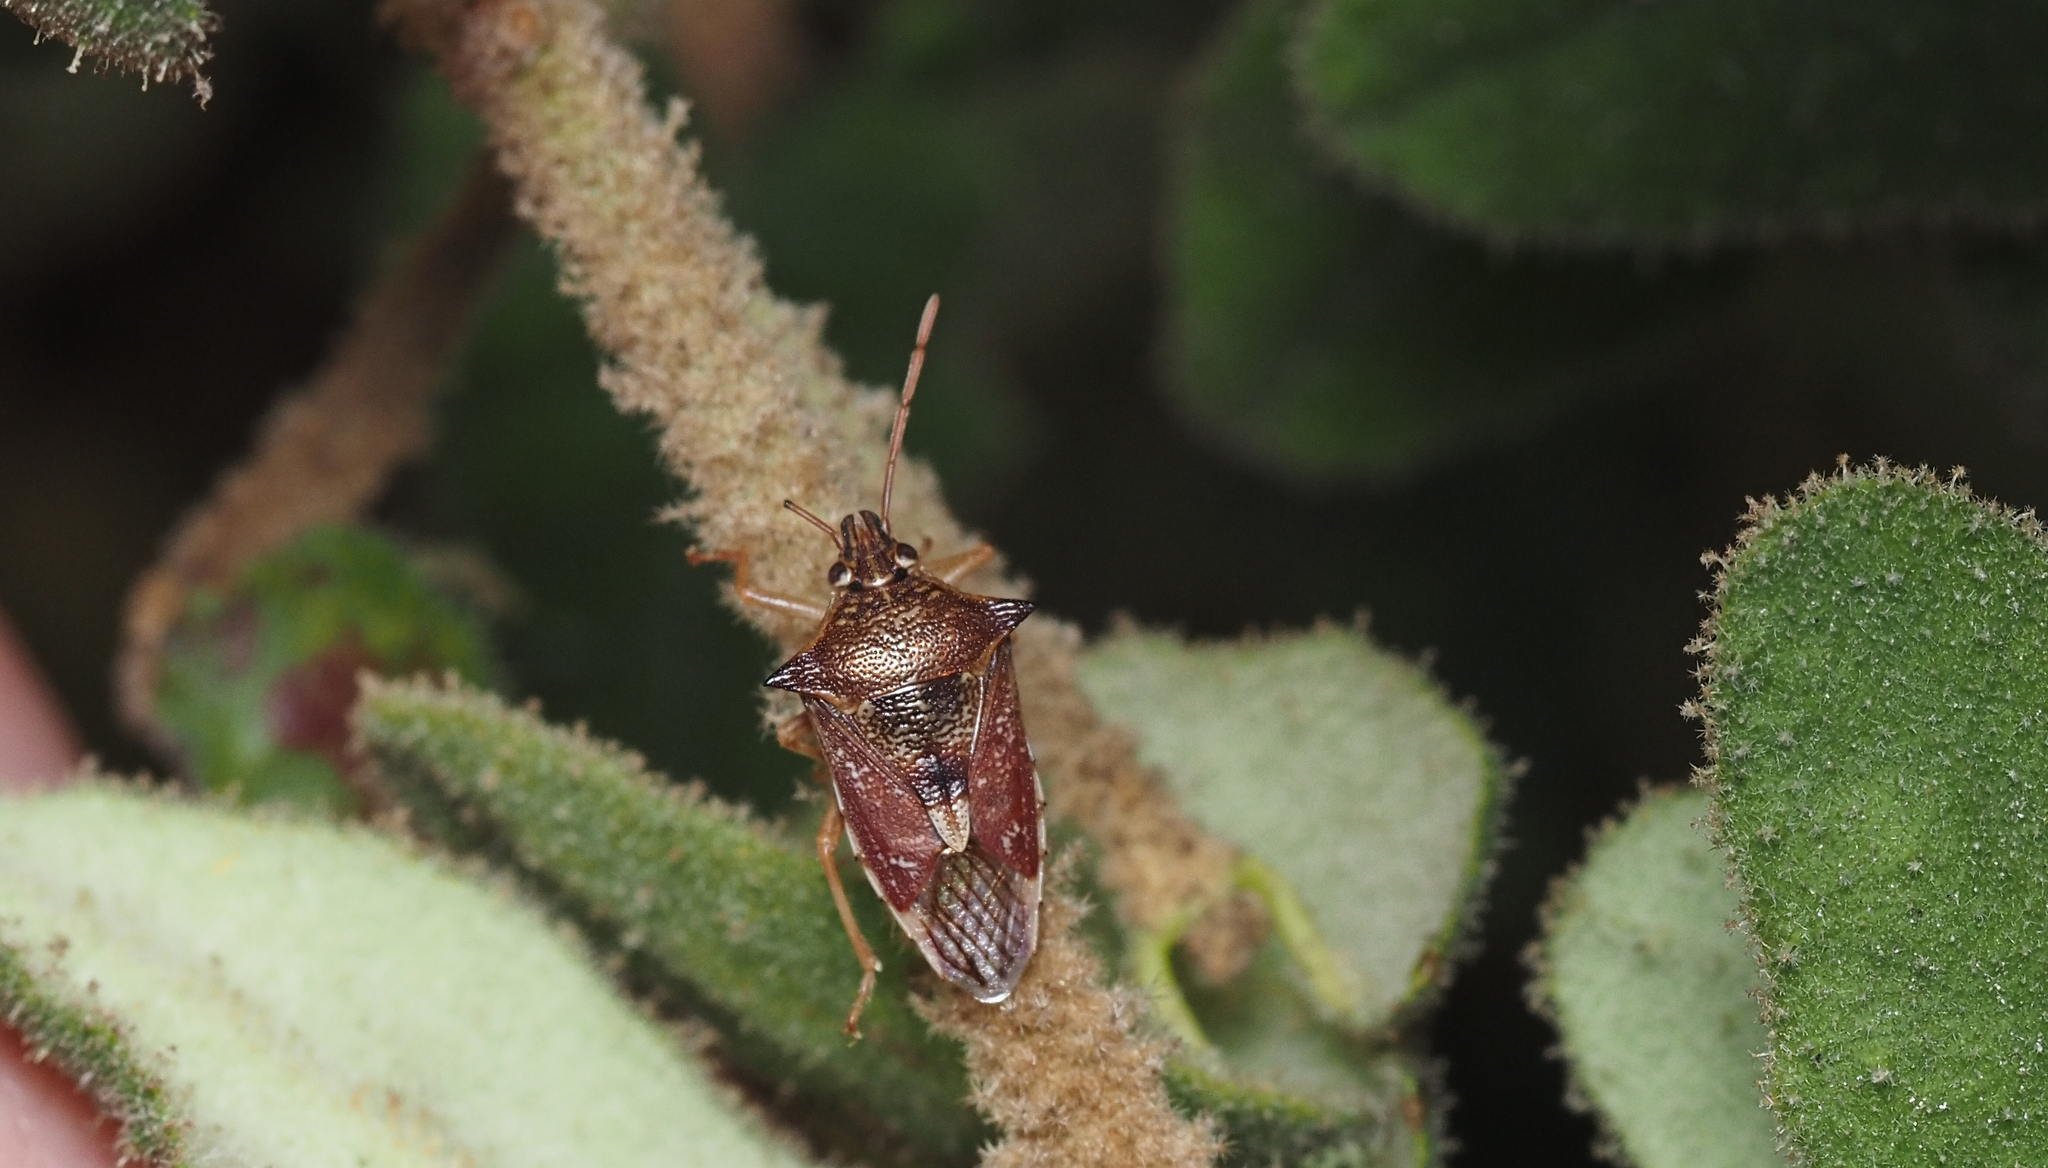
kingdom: Animalia
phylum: Arthropoda
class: Insecta
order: Hemiptera
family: Pentatomidae
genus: Oechalia
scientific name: Oechalia schellenbergii
